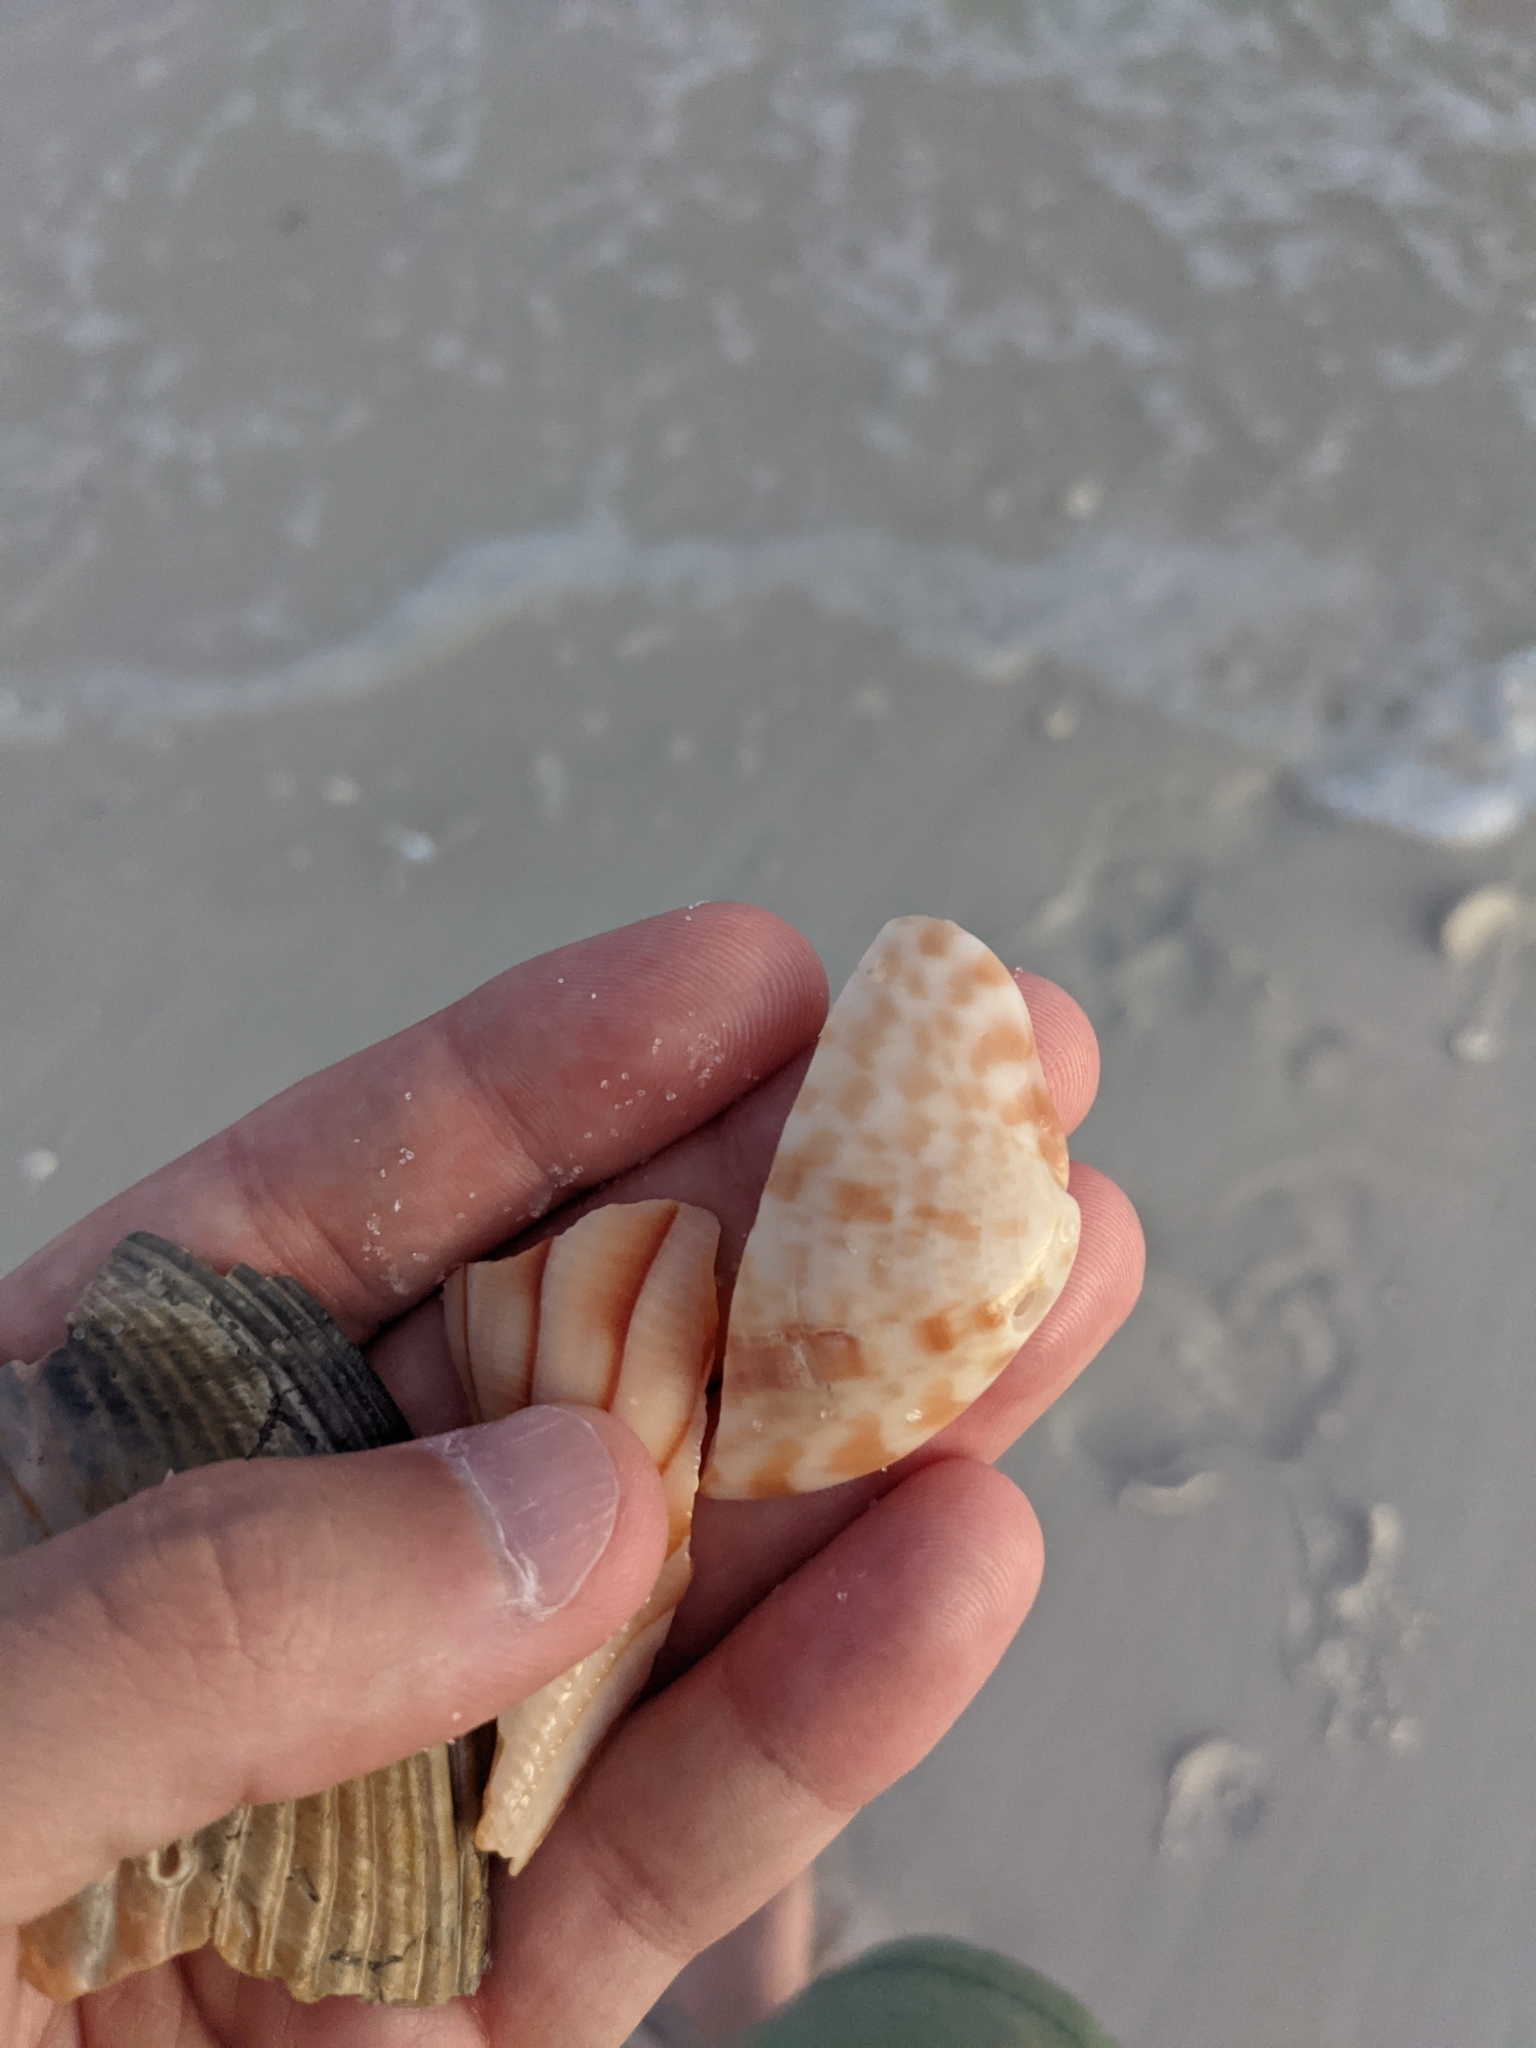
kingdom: Animalia
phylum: Mollusca
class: Bivalvia
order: Venerida
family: Veneridae
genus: Megapitaria
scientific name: Megapitaria maculata
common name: Calico clam
